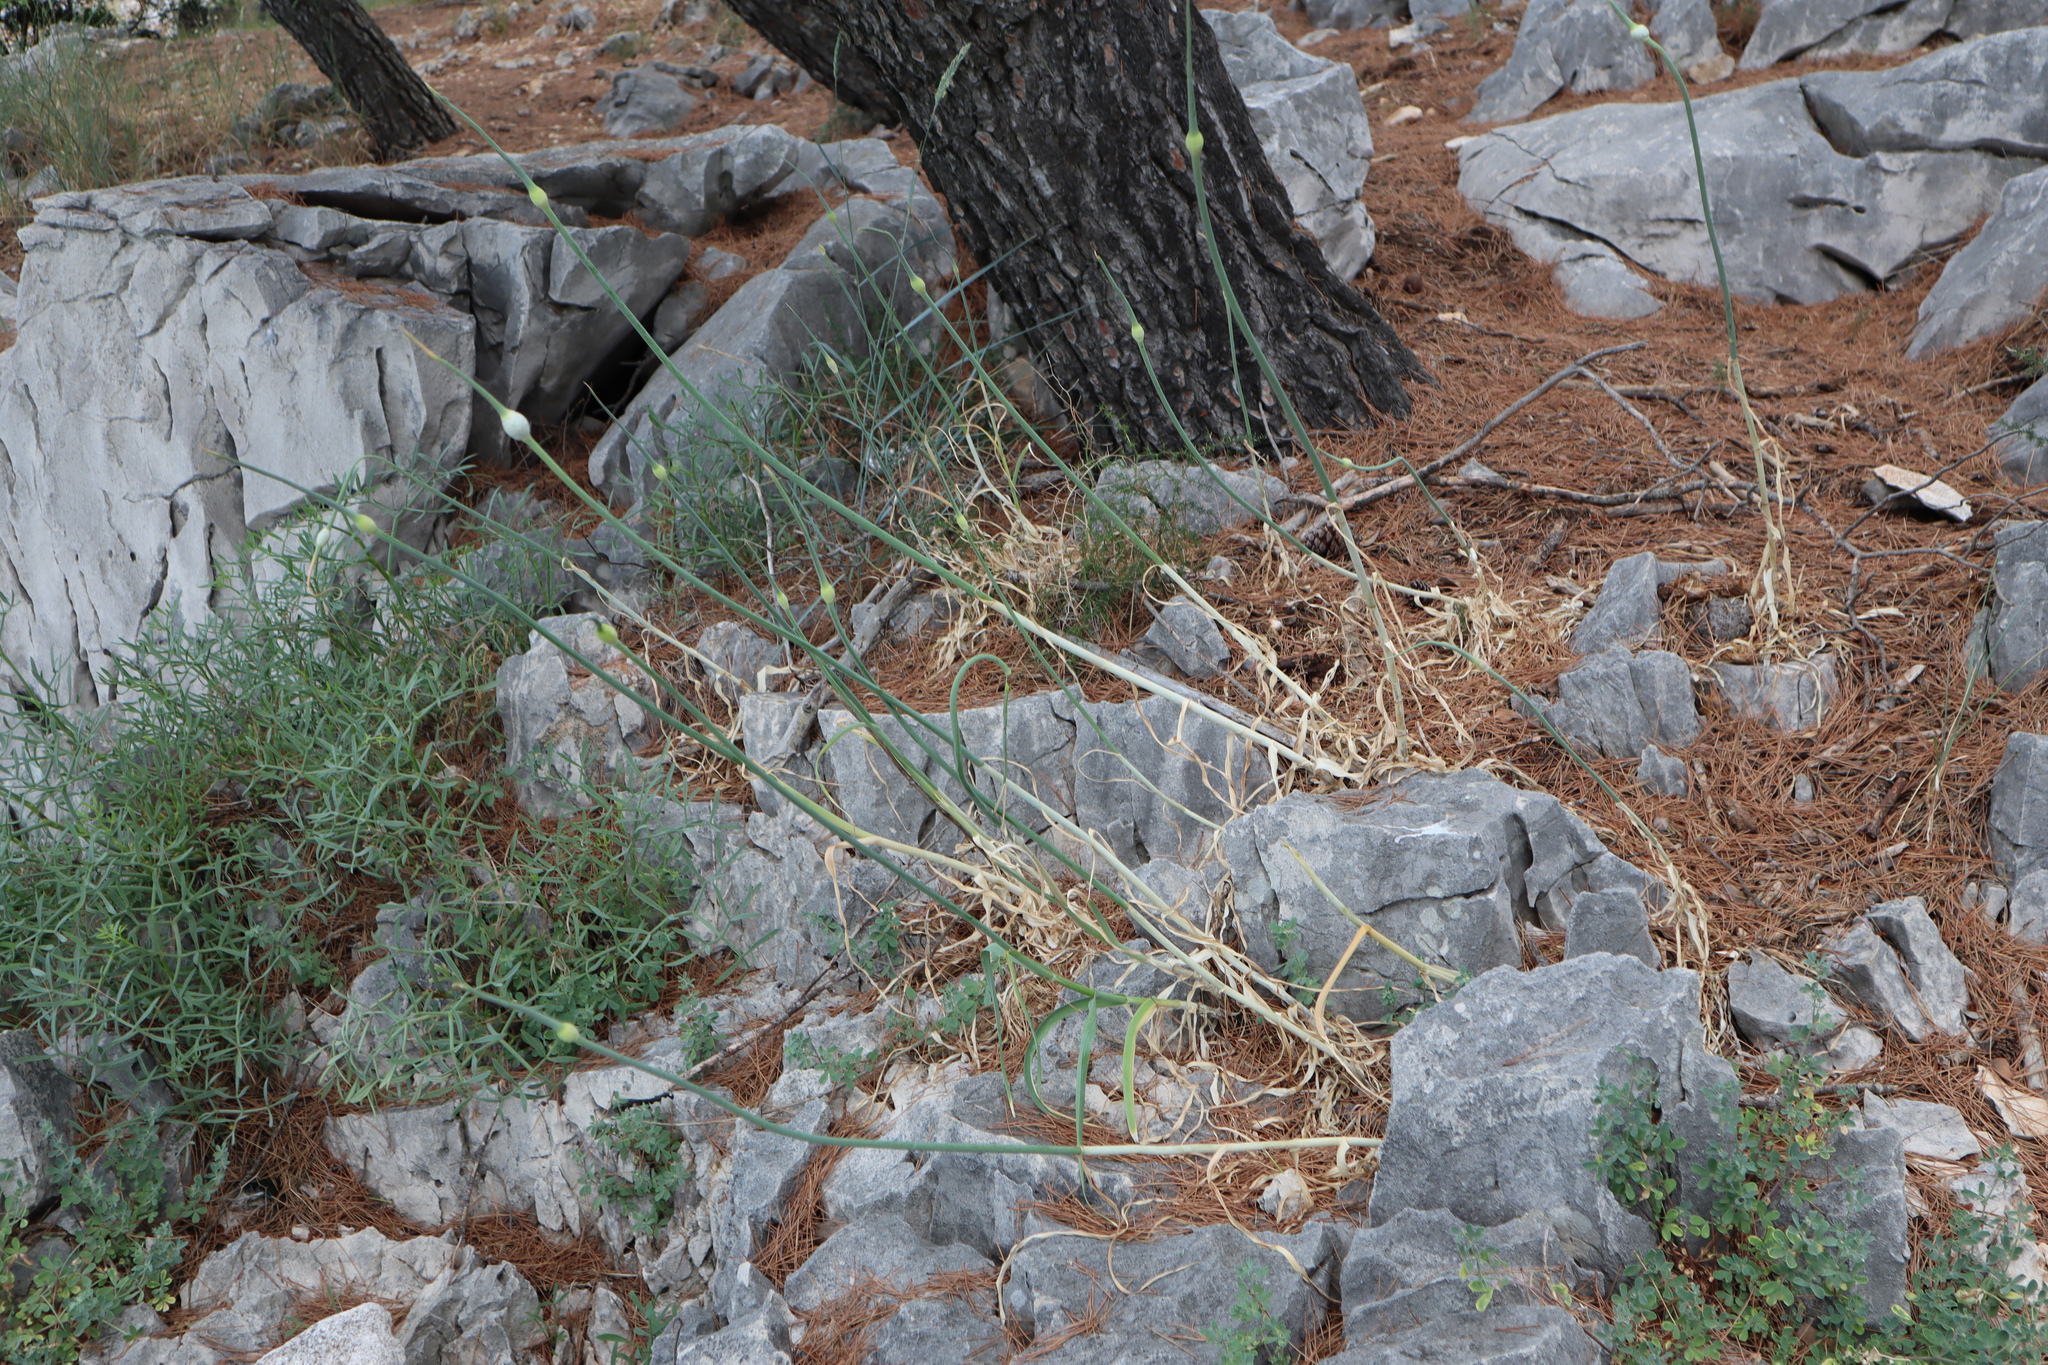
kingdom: Plantae
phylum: Tracheophyta
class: Liliopsida
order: Asparagales
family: Amaryllidaceae
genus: Allium
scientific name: Allium commutatum
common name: Sea garlic
